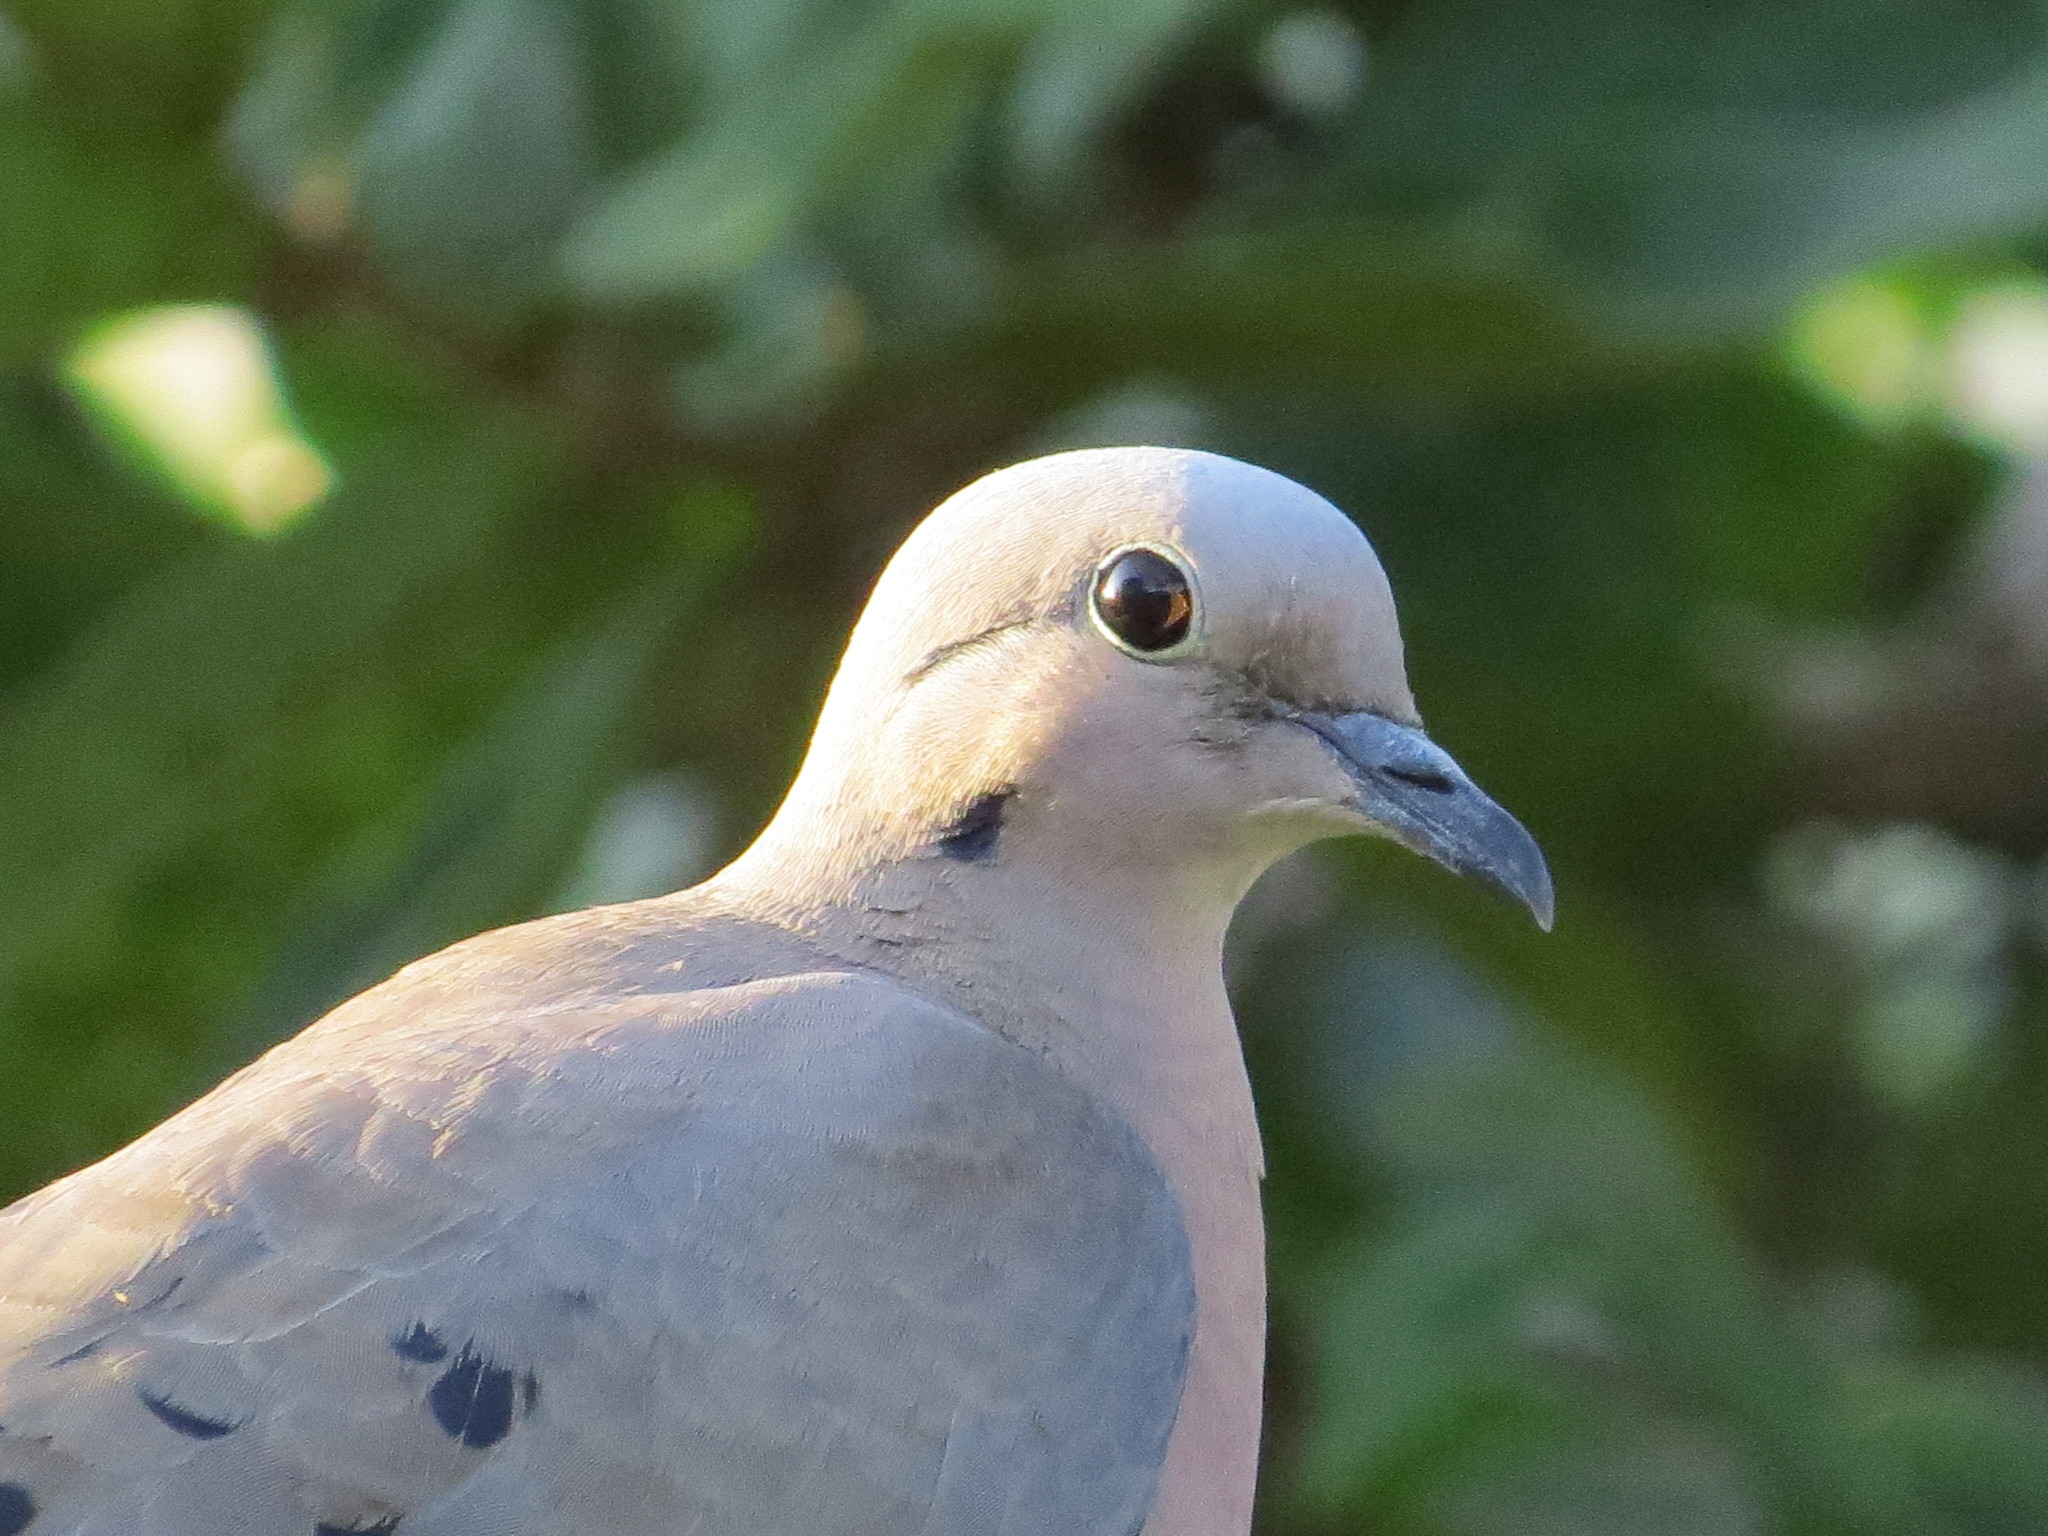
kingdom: Animalia
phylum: Chordata
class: Aves
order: Columbiformes
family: Columbidae
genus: Zenaida
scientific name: Zenaida auriculata
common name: Eared dove
